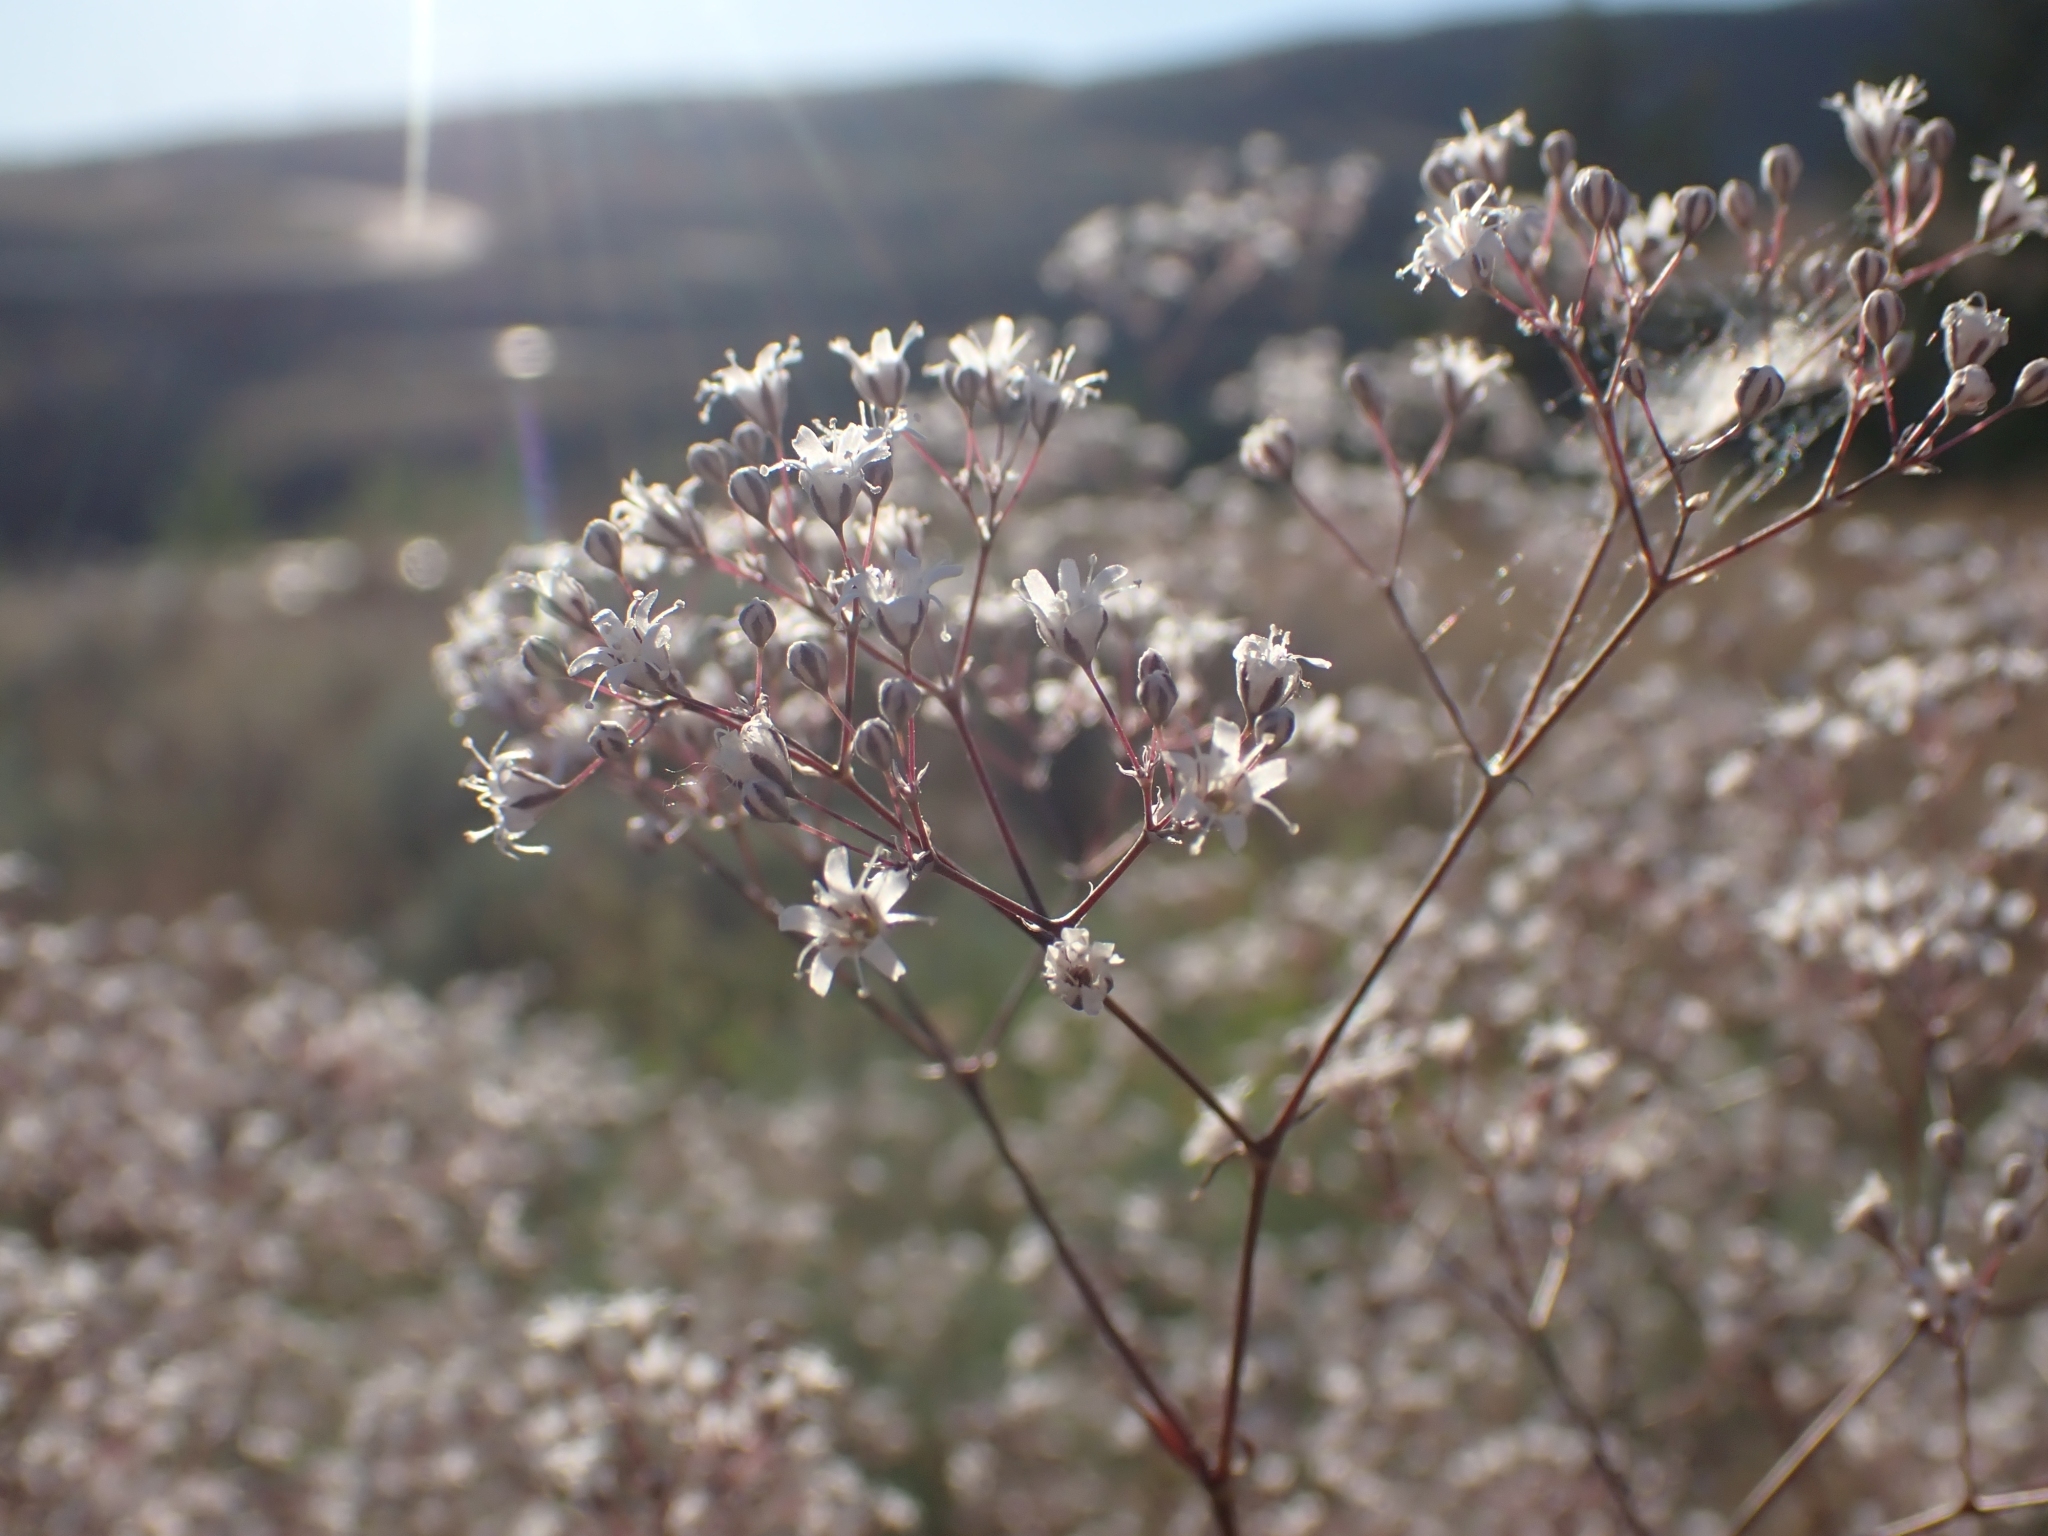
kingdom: Plantae
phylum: Tracheophyta
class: Magnoliopsida
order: Caryophyllales
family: Caryophyllaceae
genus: Gypsophila
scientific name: Gypsophila paniculata
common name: Baby's-breath
